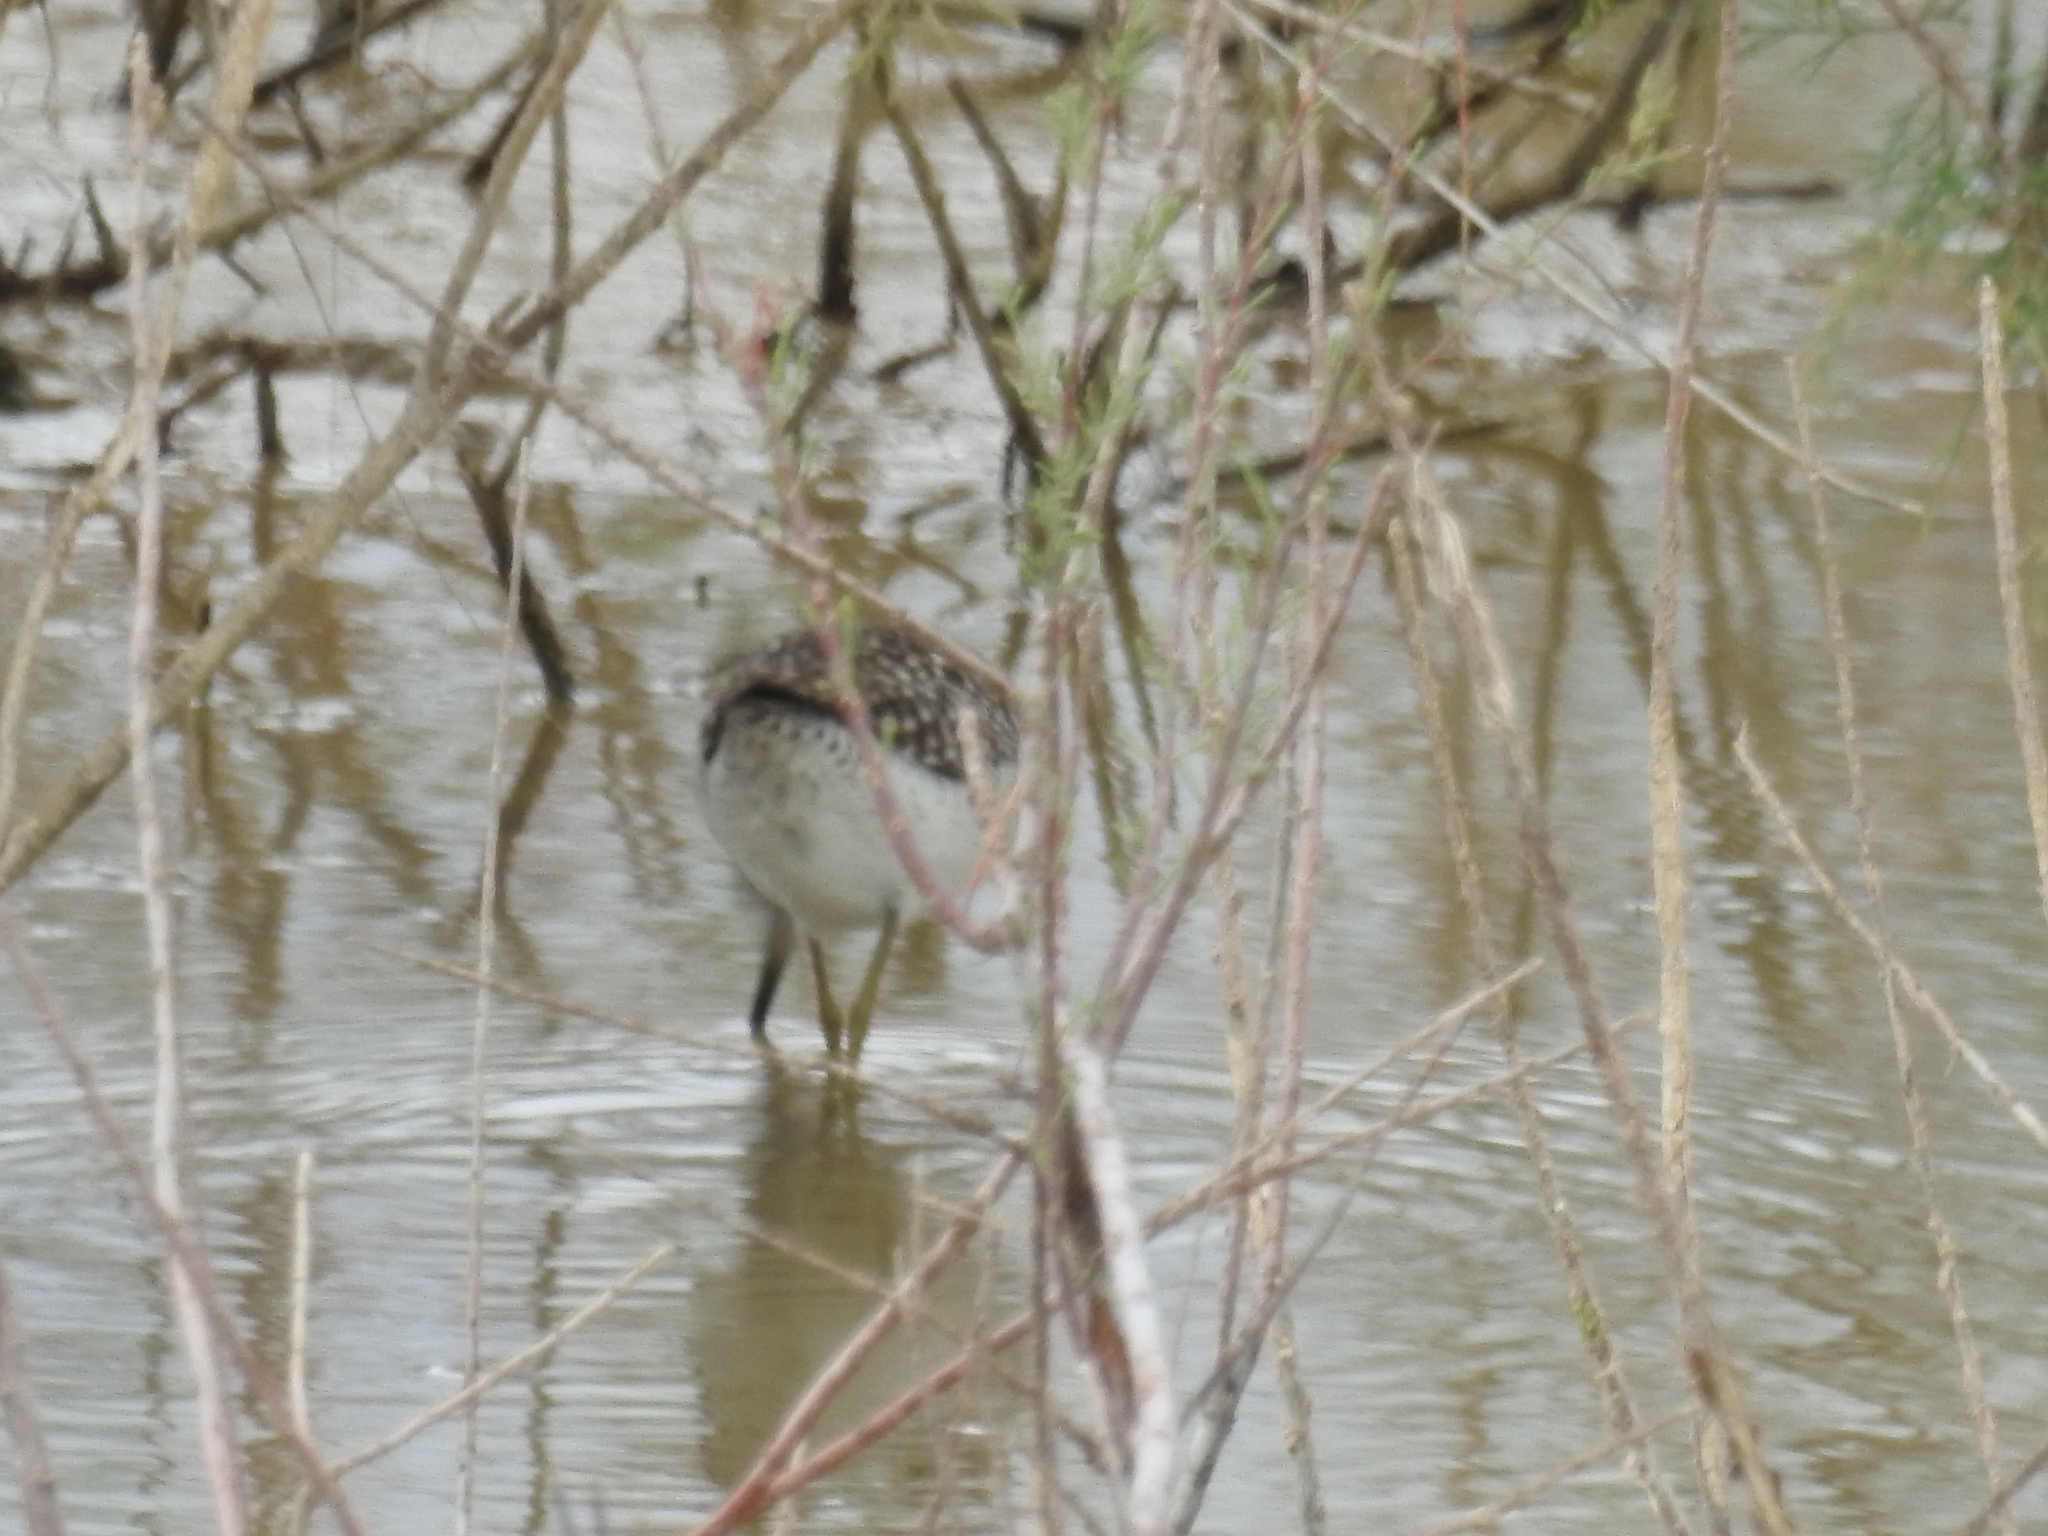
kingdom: Animalia
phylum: Chordata
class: Aves
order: Charadriiformes
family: Scolopacidae
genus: Tringa
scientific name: Tringa glareola
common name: Wood sandpiper
